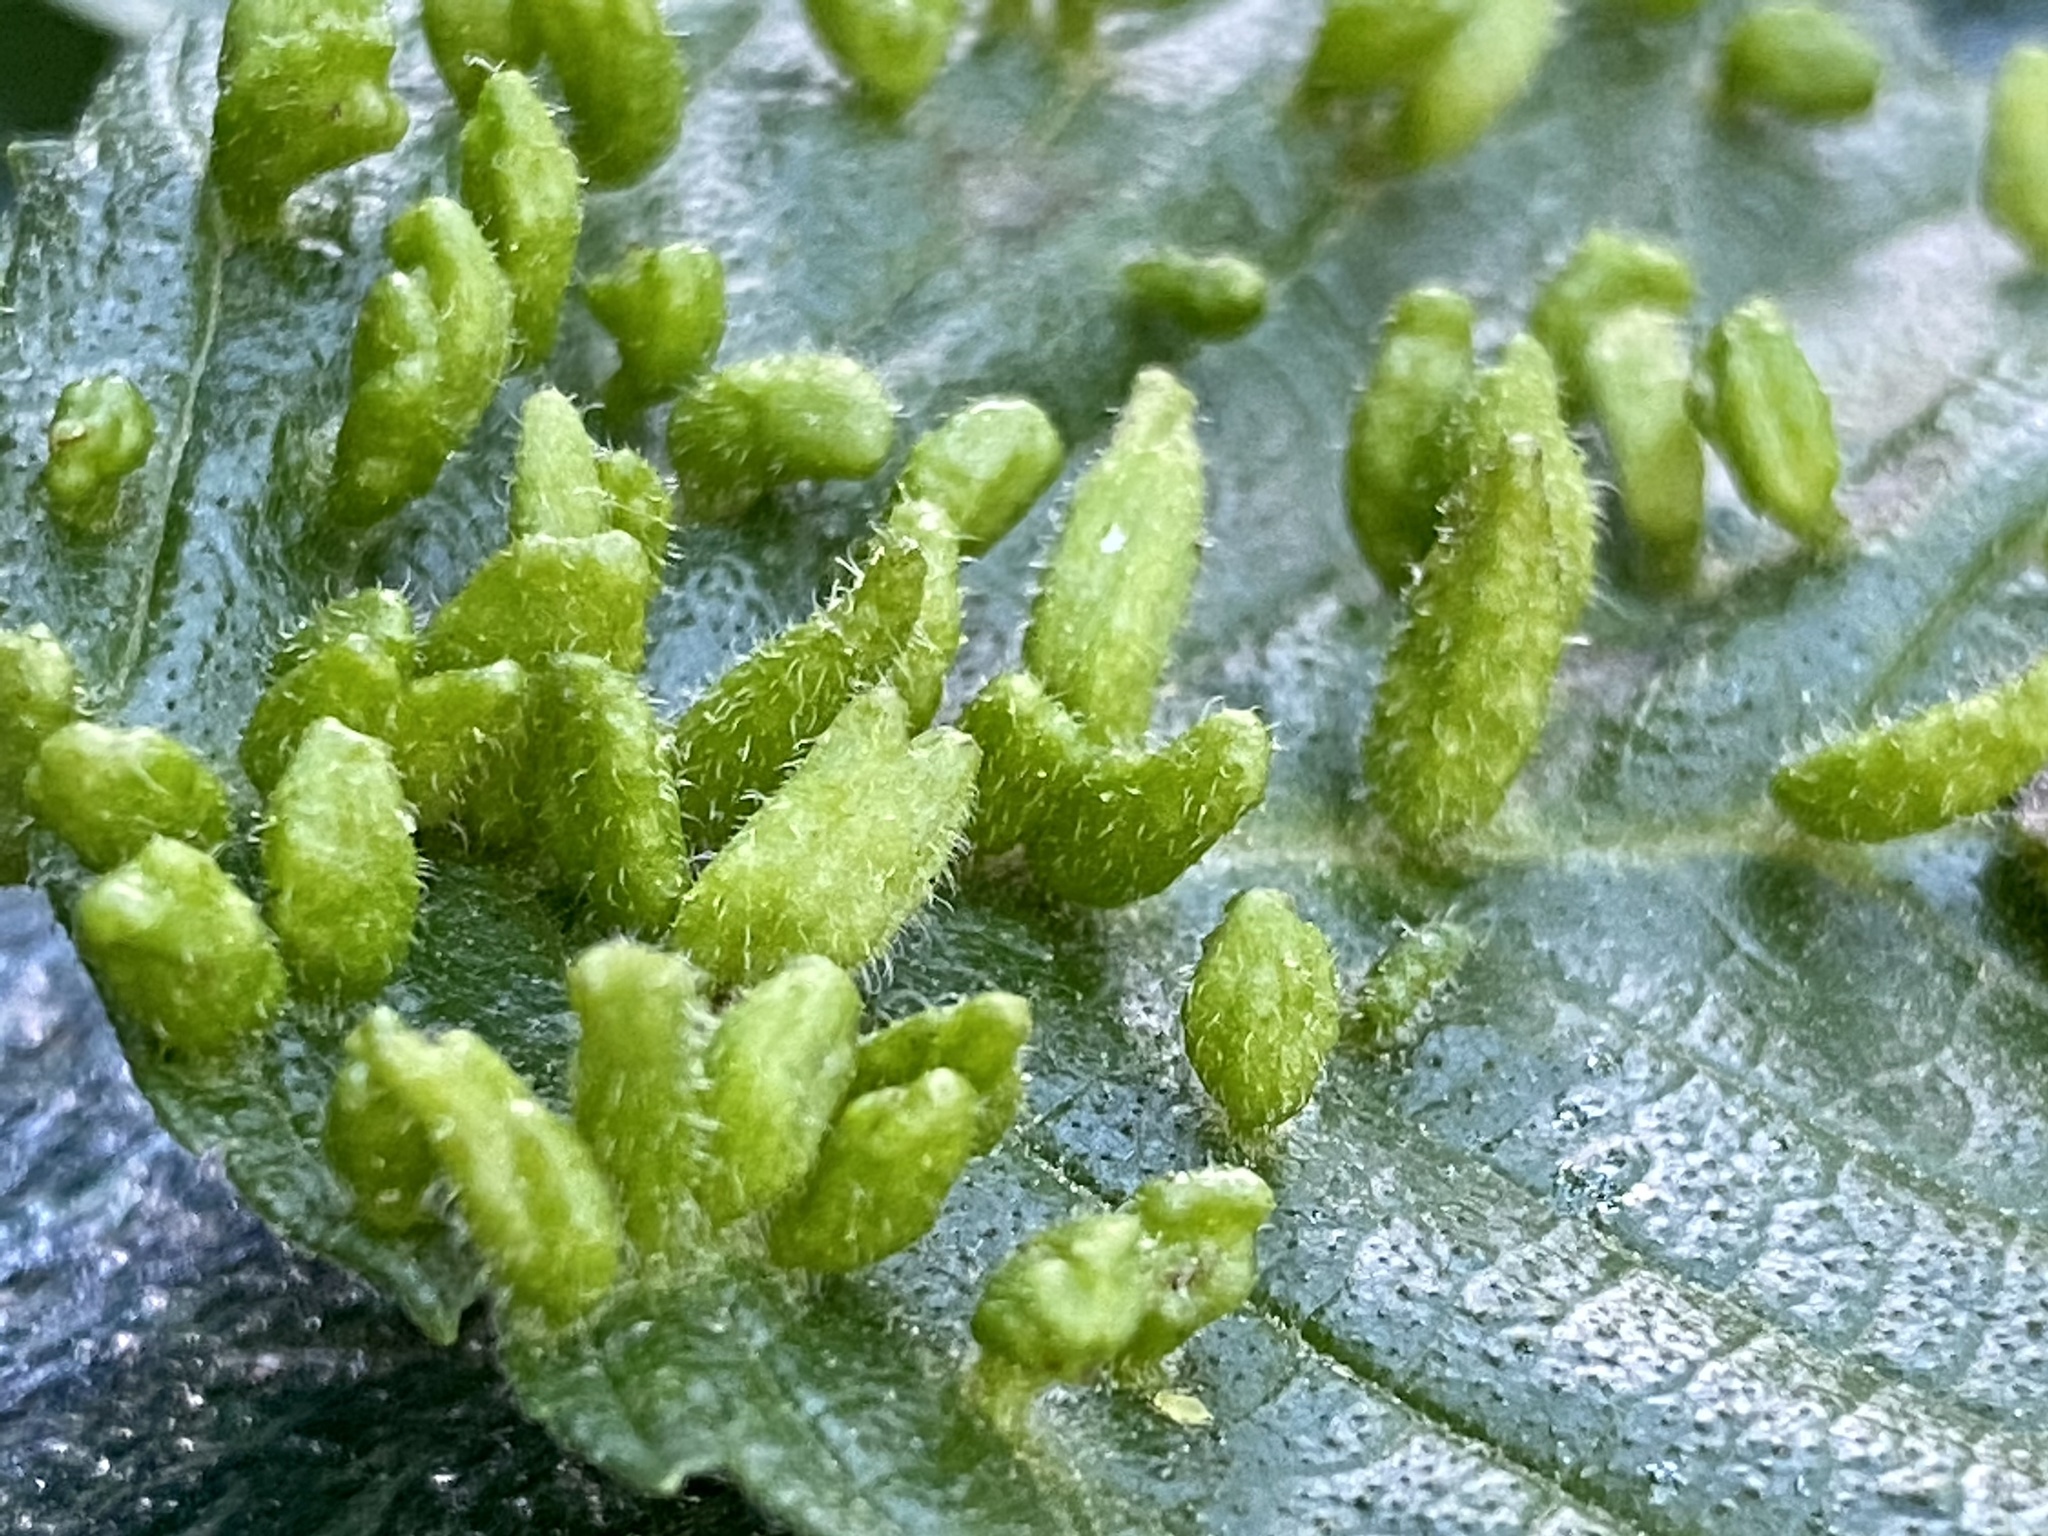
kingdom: Animalia
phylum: Arthropoda
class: Arachnida
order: Trombidiformes
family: Eriophyidae
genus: Aceria
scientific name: Aceria
